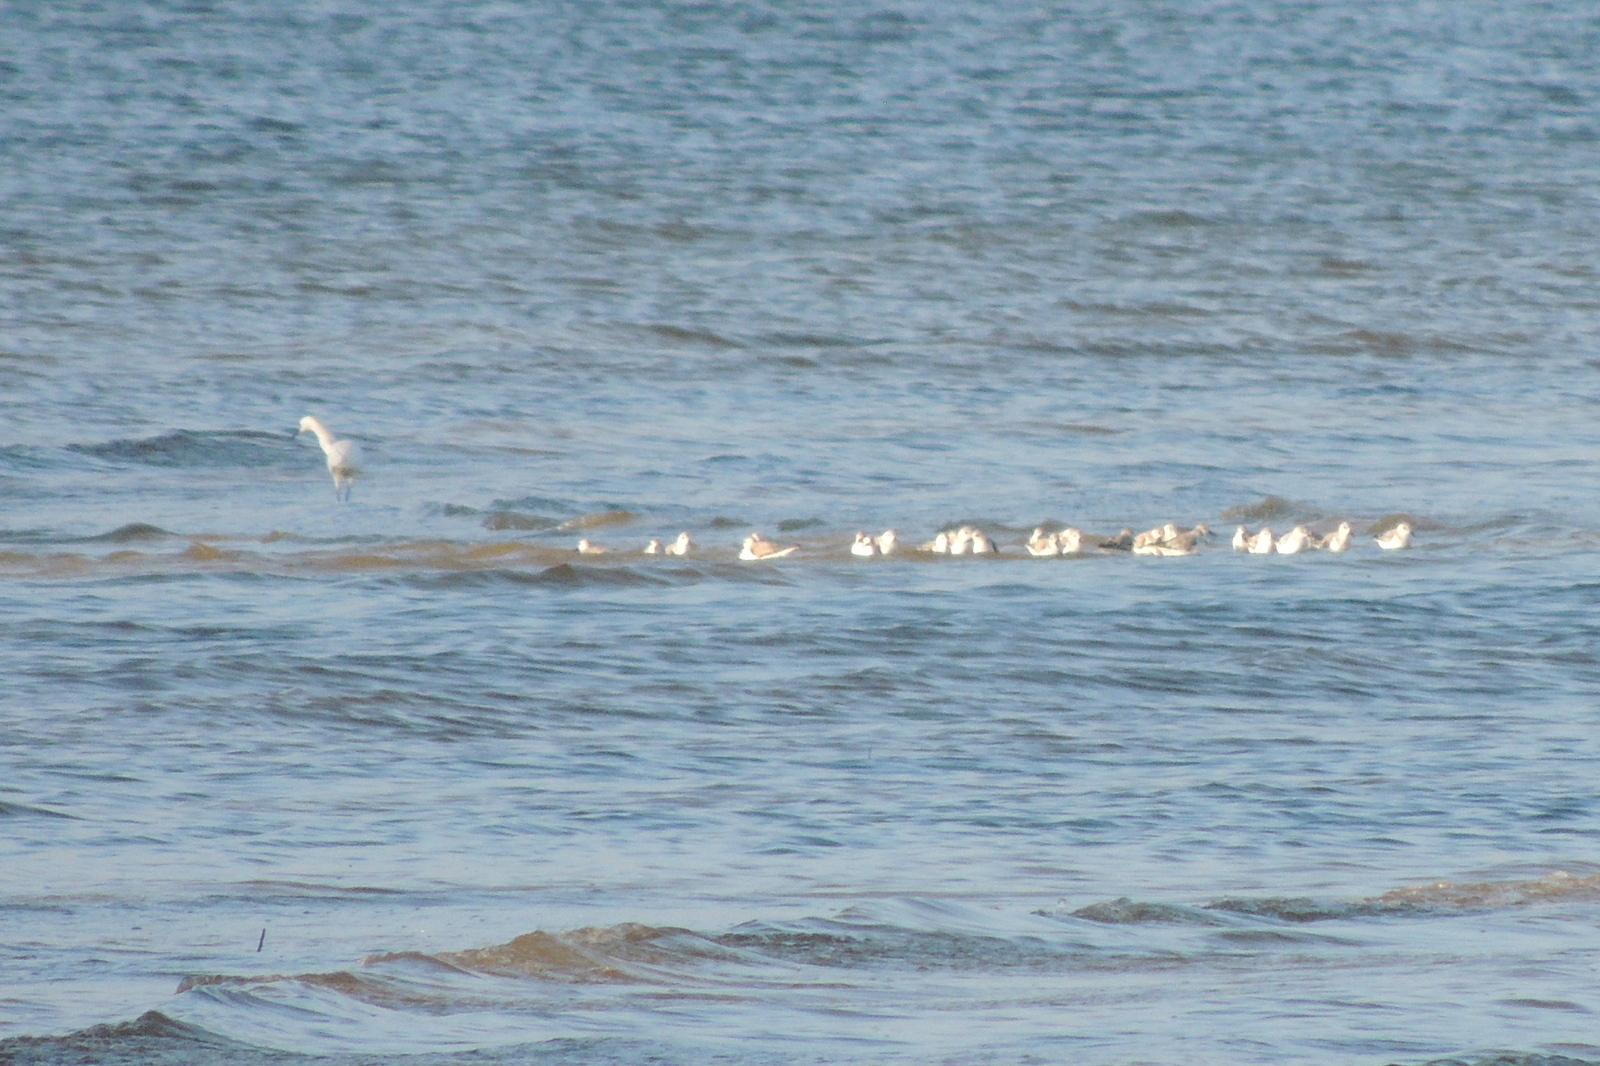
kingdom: Animalia
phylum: Chordata
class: Aves
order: Pelecaniformes
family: Ardeidae
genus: Egretta
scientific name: Egretta thula
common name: Snowy egret
